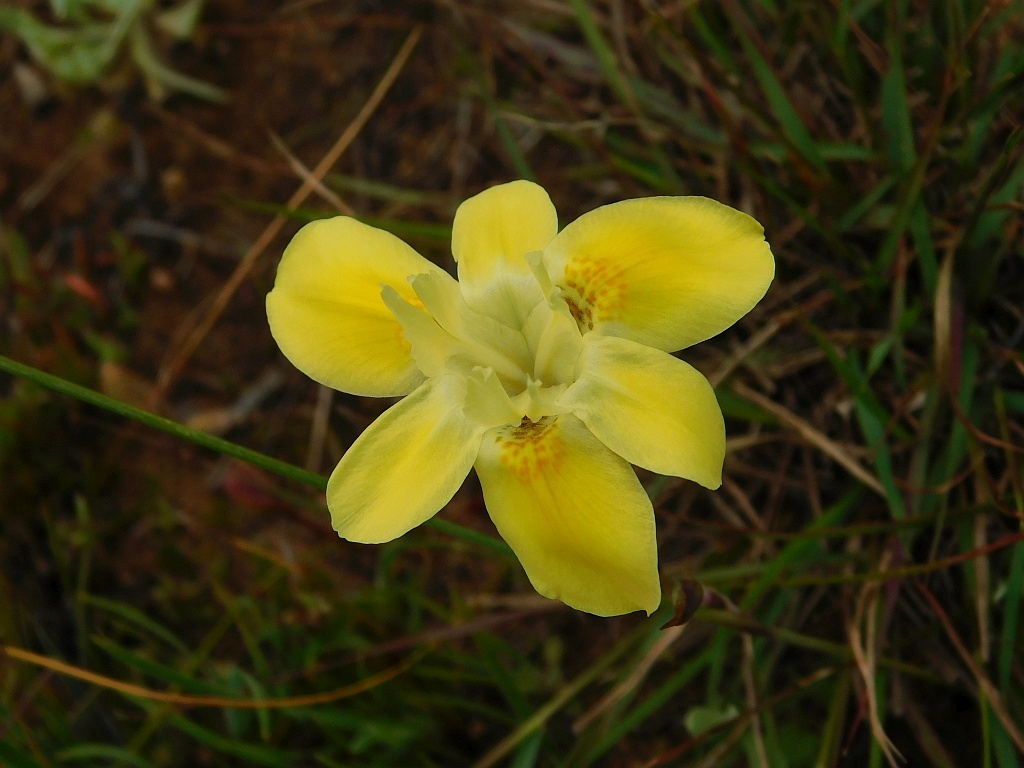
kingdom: Plantae
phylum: Tracheophyta
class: Liliopsida
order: Asparagales
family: Iridaceae
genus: Moraea
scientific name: Moraea fugax
